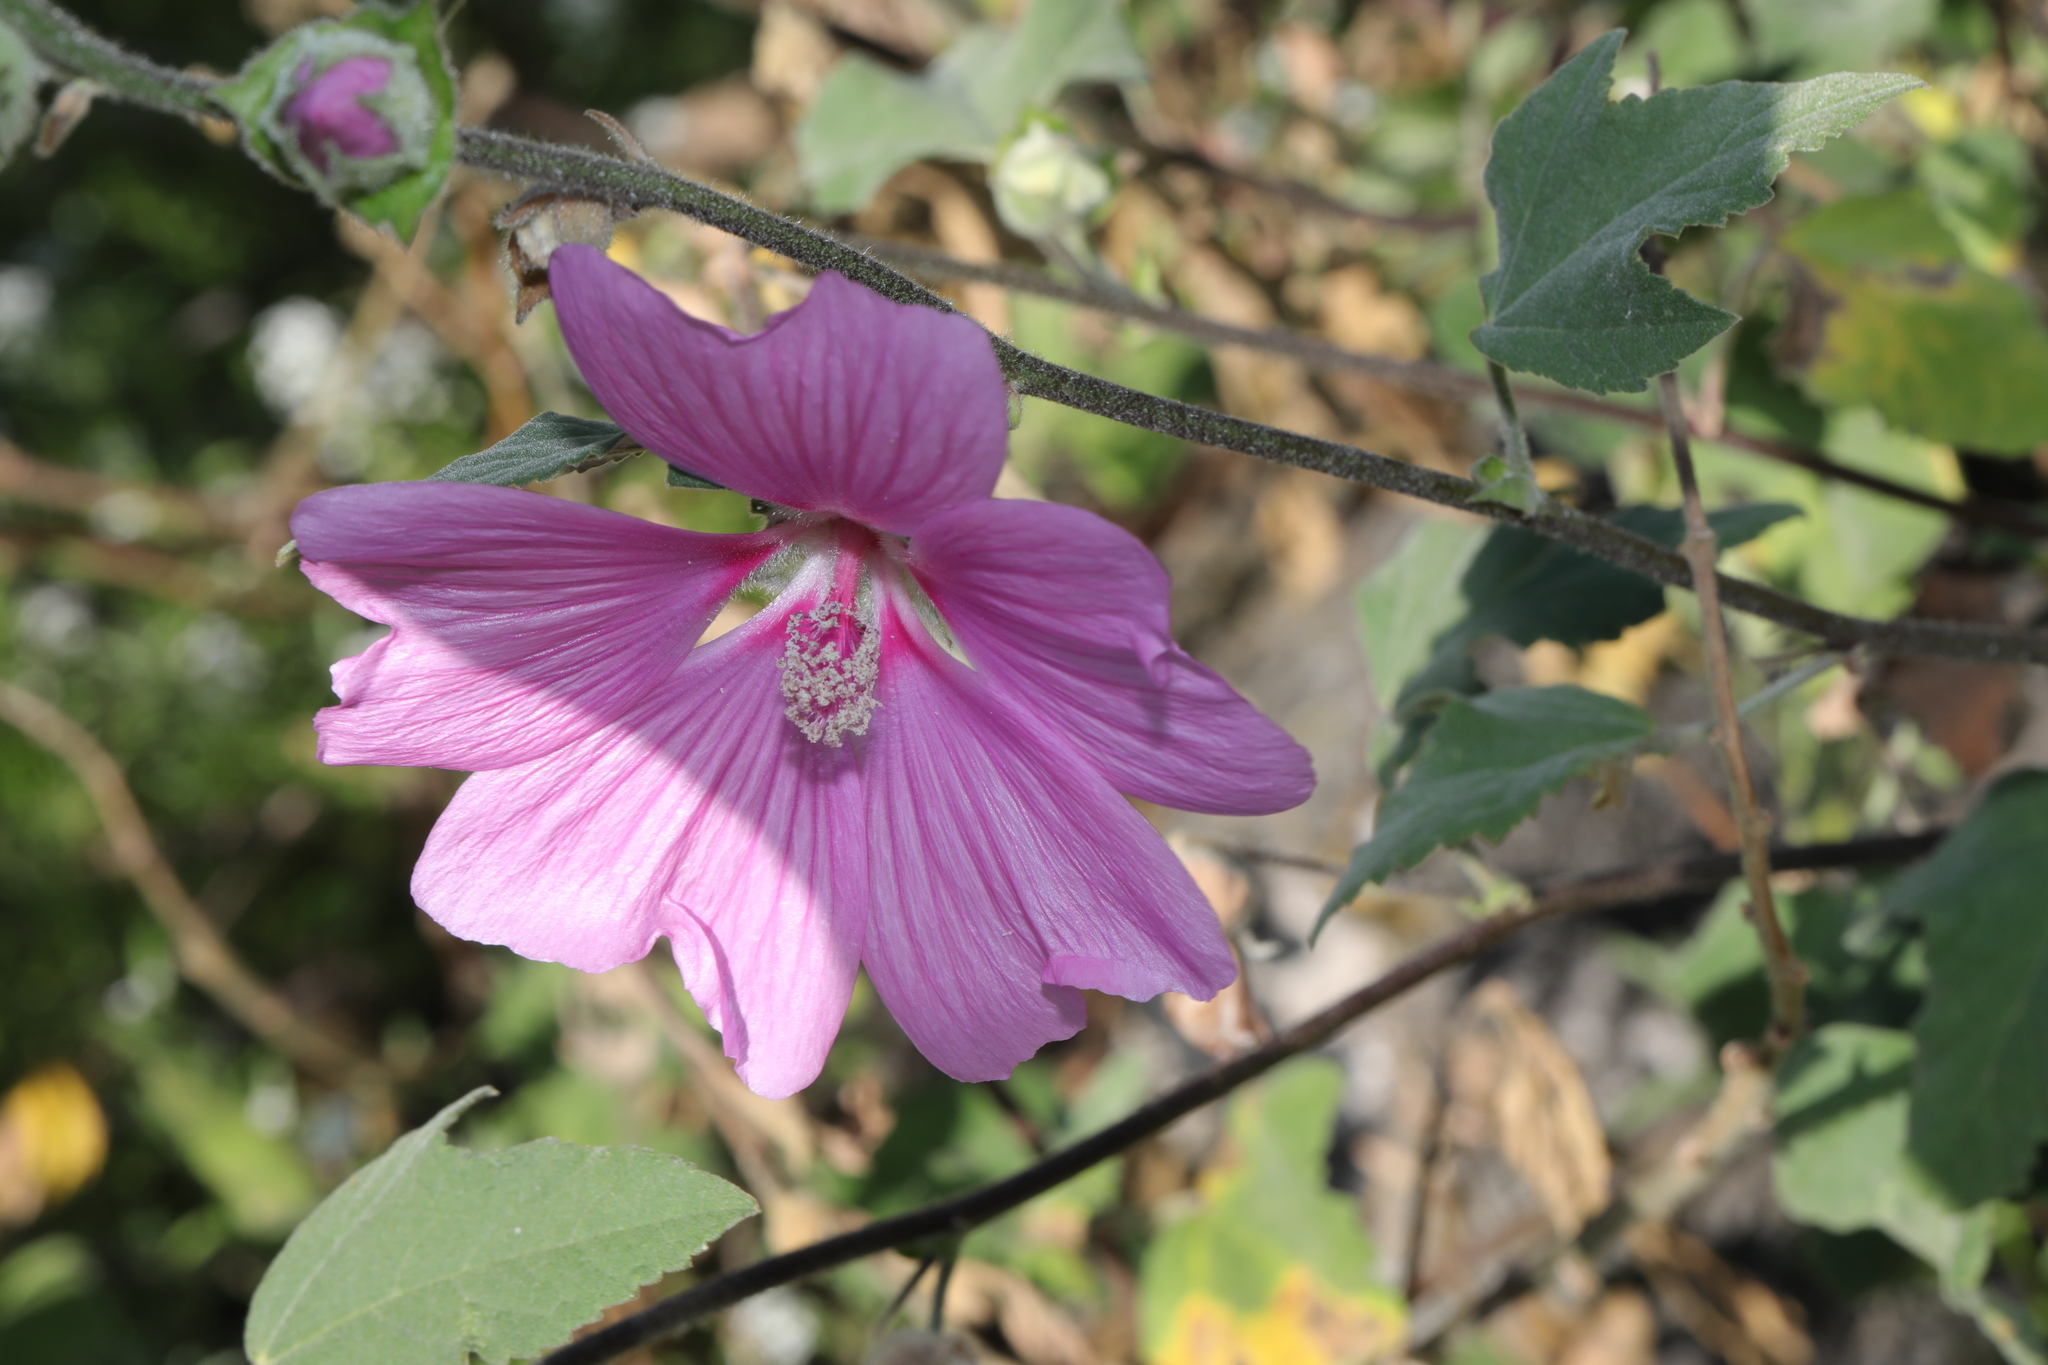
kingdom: Plantae
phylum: Tracheophyta
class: Magnoliopsida
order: Malvales
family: Malvaceae
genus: Malva
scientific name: Malva clementii
